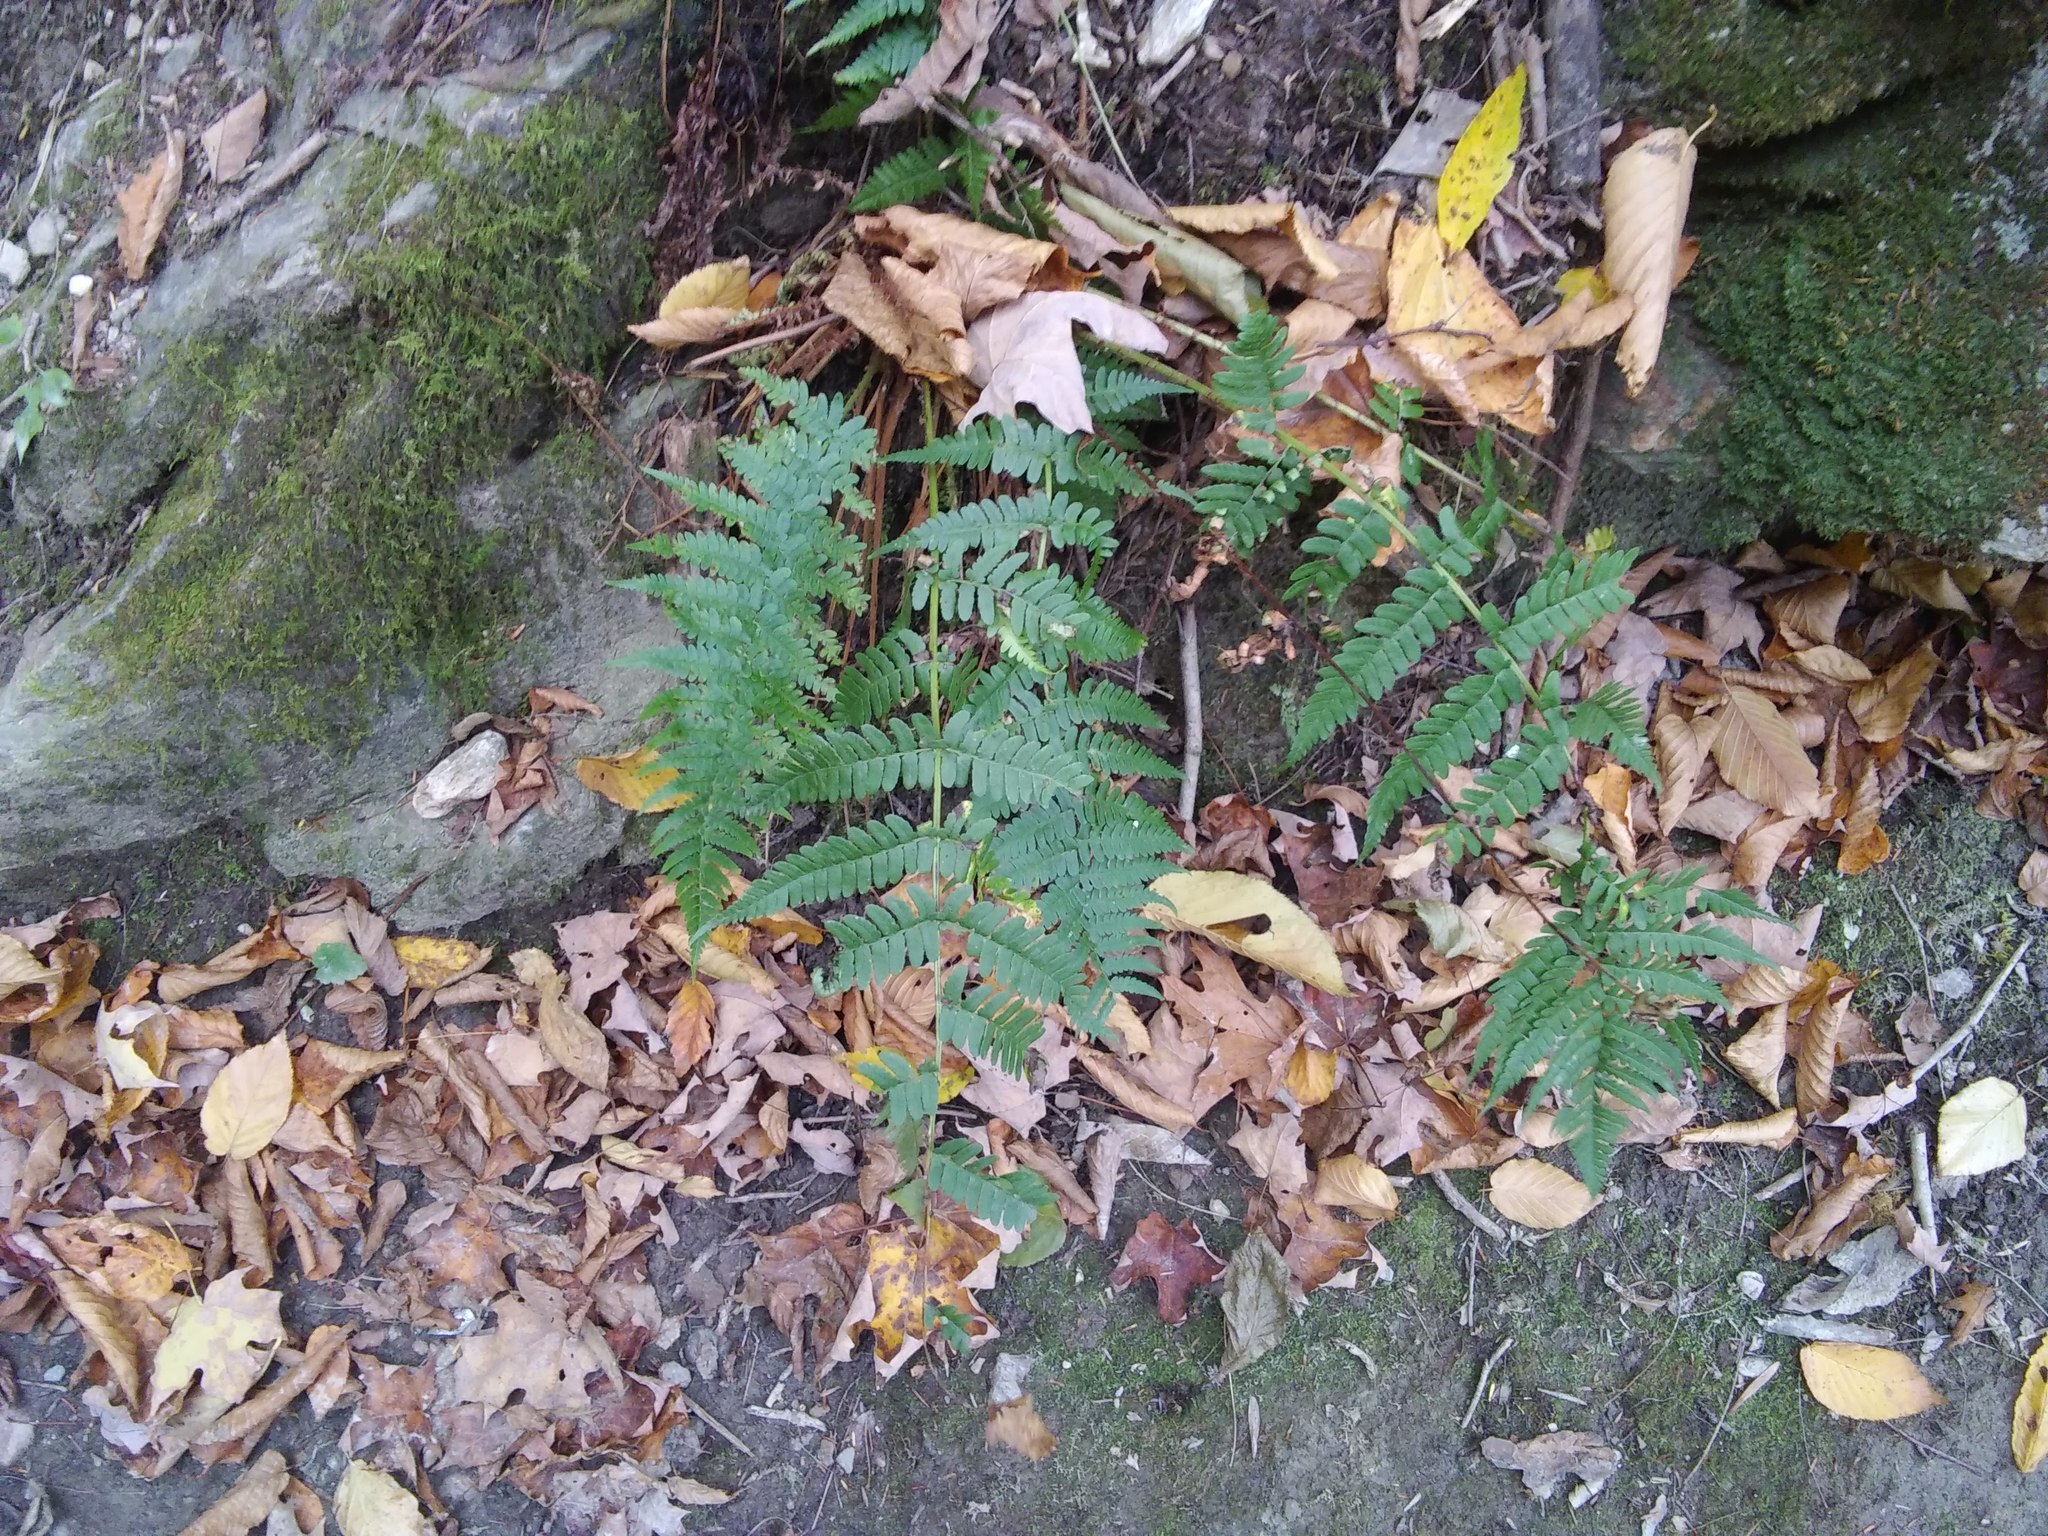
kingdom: Plantae
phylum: Tracheophyta
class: Polypodiopsida
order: Polypodiales
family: Dryopteridaceae
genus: Dryopteris
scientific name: Dryopteris marginalis
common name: Marginal wood fern
